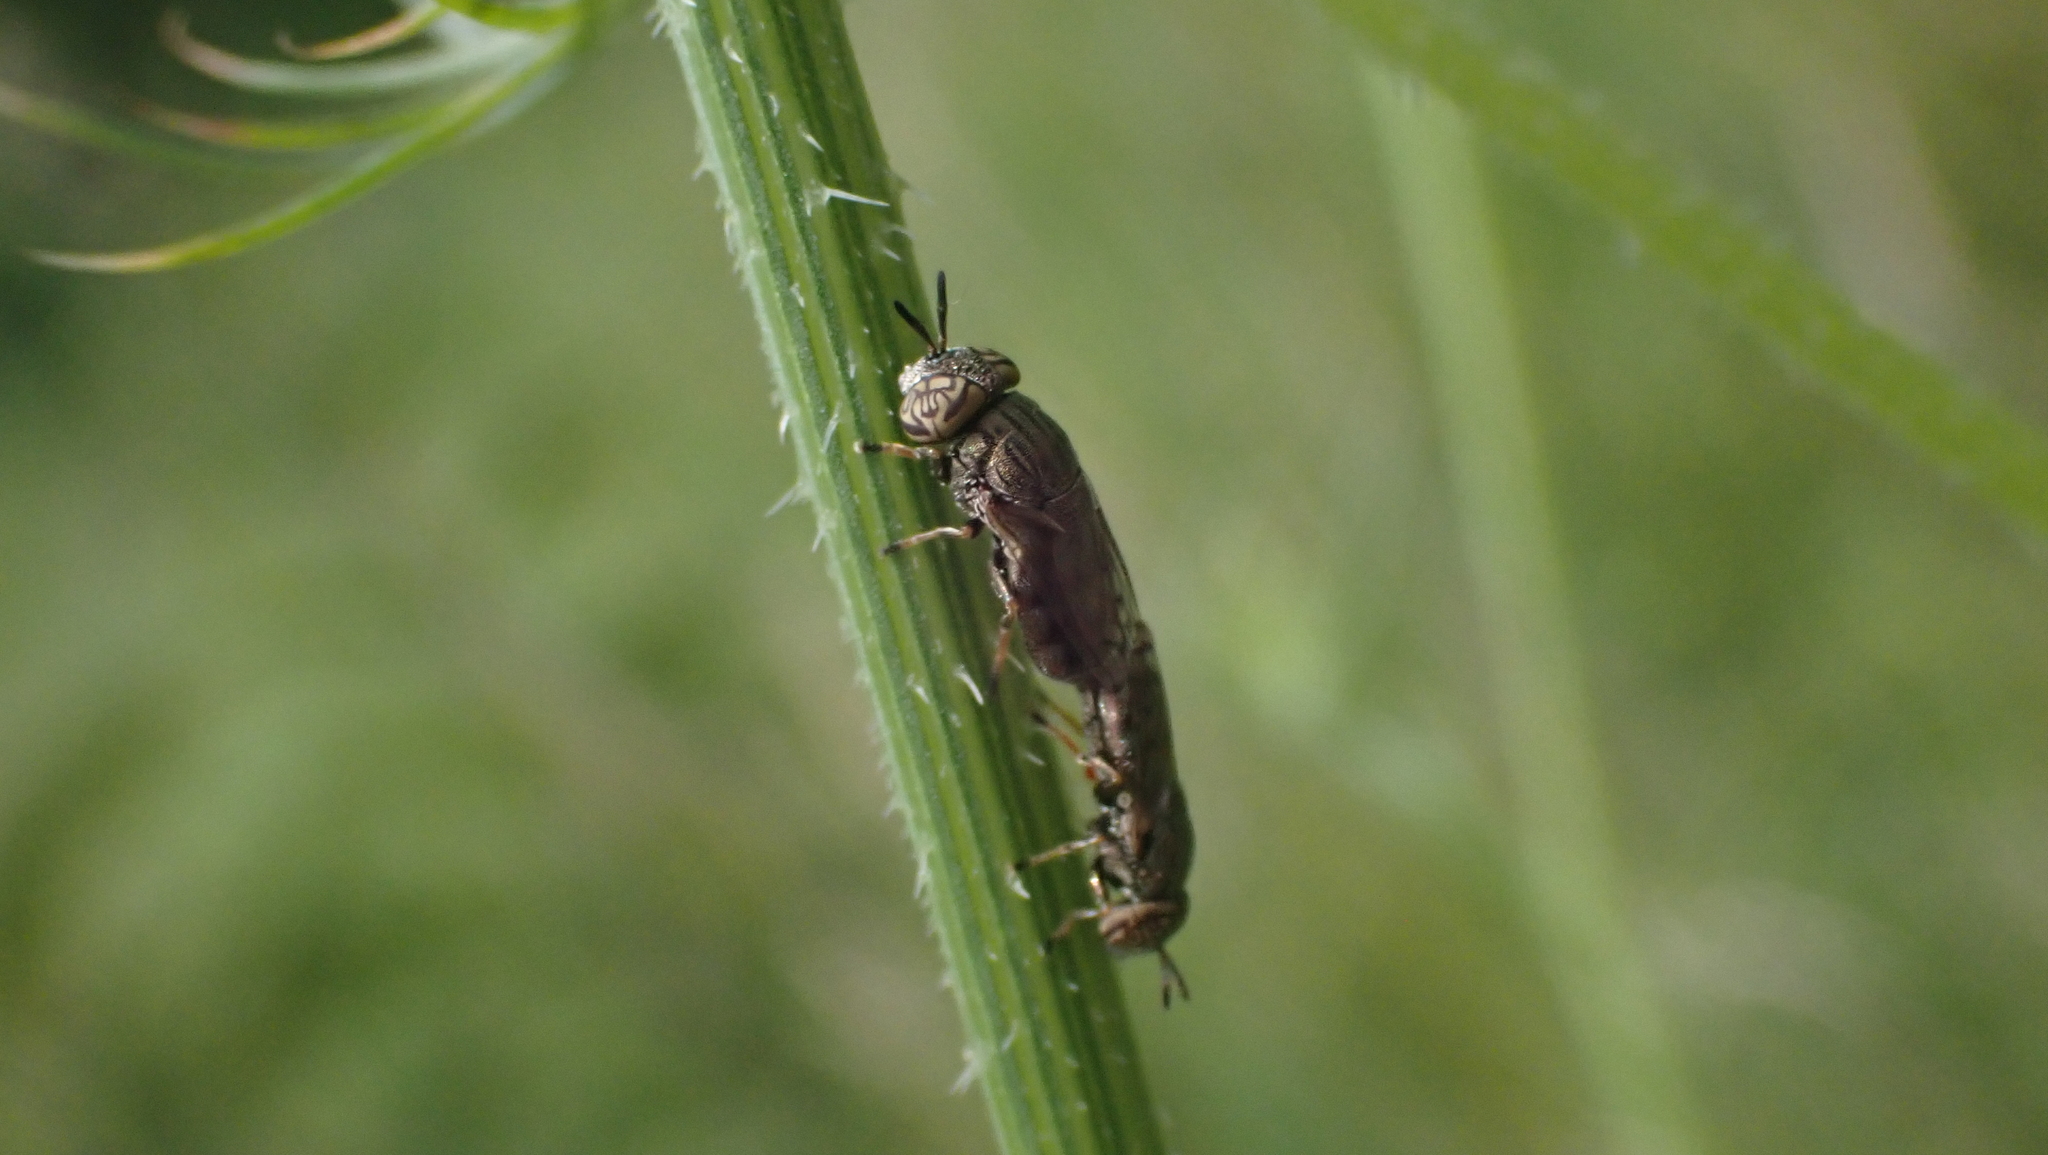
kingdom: Animalia
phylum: Arthropoda
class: Insecta
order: Diptera
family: Syrphidae
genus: Orthonevra
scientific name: Orthonevra nitida
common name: Wavy mucksucker
